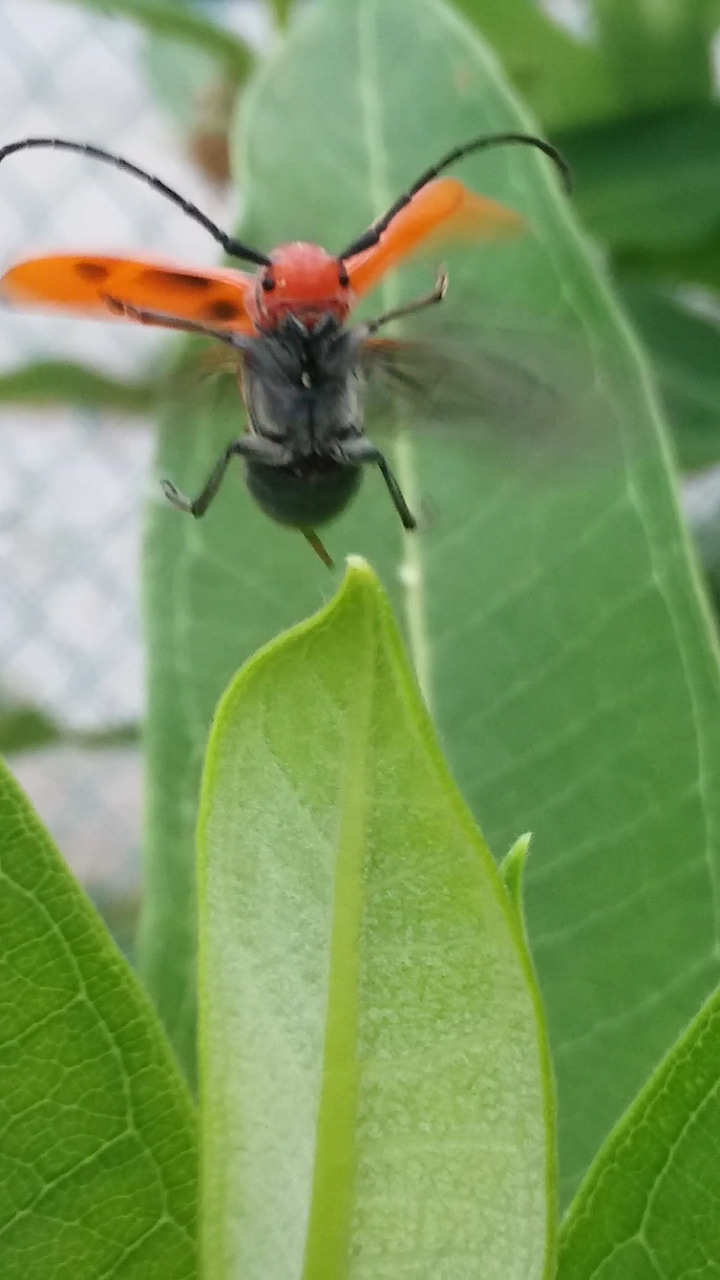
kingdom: Animalia
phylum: Arthropoda
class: Insecta
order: Coleoptera
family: Cerambycidae
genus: Tetraopes
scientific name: Tetraopes tetrophthalmus
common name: Red milkweed beetle
